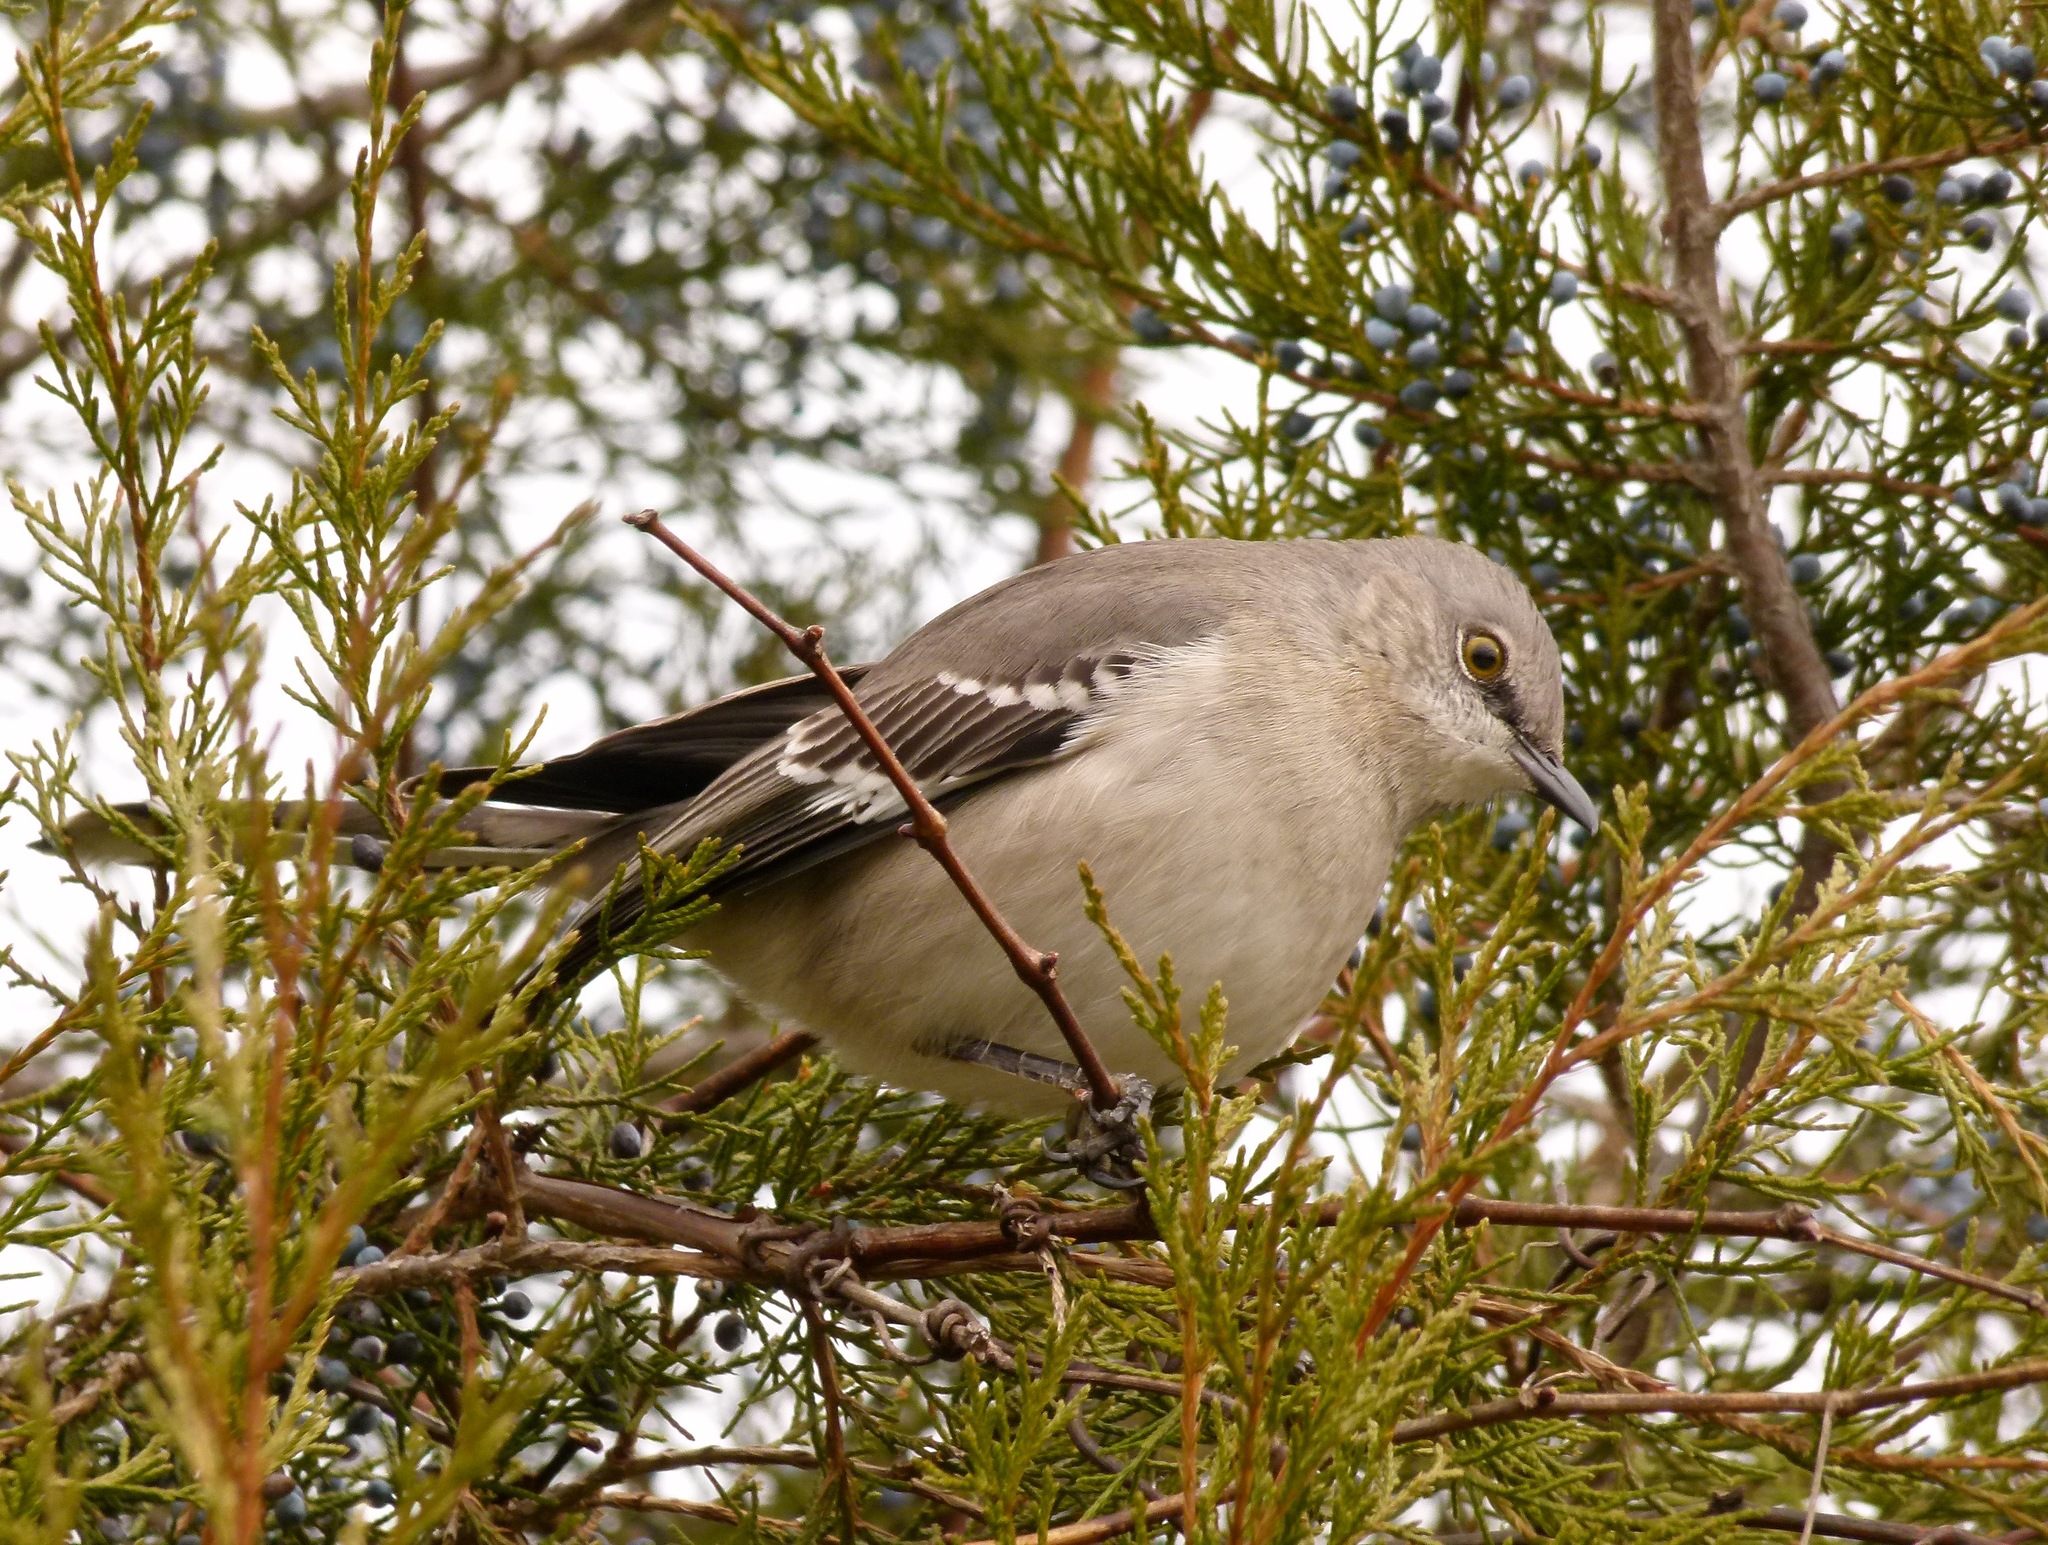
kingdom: Animalia
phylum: Chordata
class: Aves
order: Passeriformes
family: Mimidae
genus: Mimus
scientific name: Mimus polyglottos
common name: Northern mockingbird
